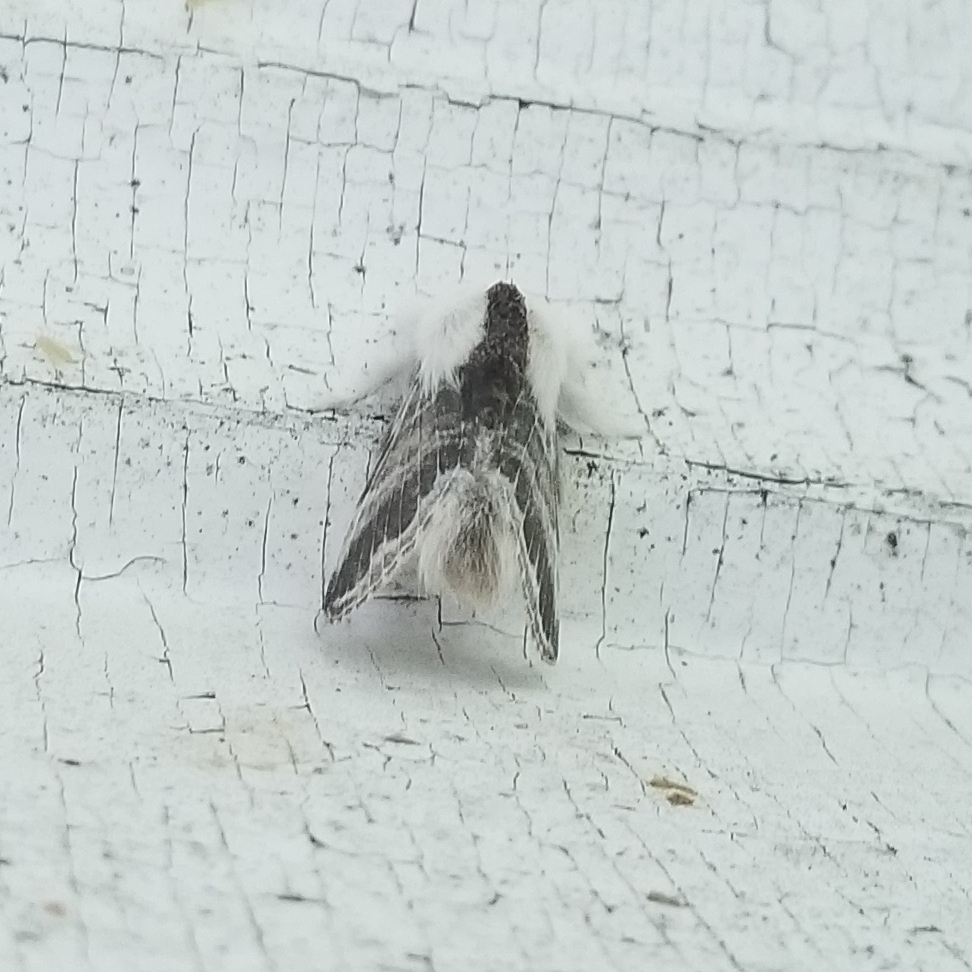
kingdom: Animalia
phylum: Arthropoda
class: Insecta
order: Lepidoptera
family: Lasiocampidae
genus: Tolype
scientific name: Tolype velleda
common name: Large tolype moth
